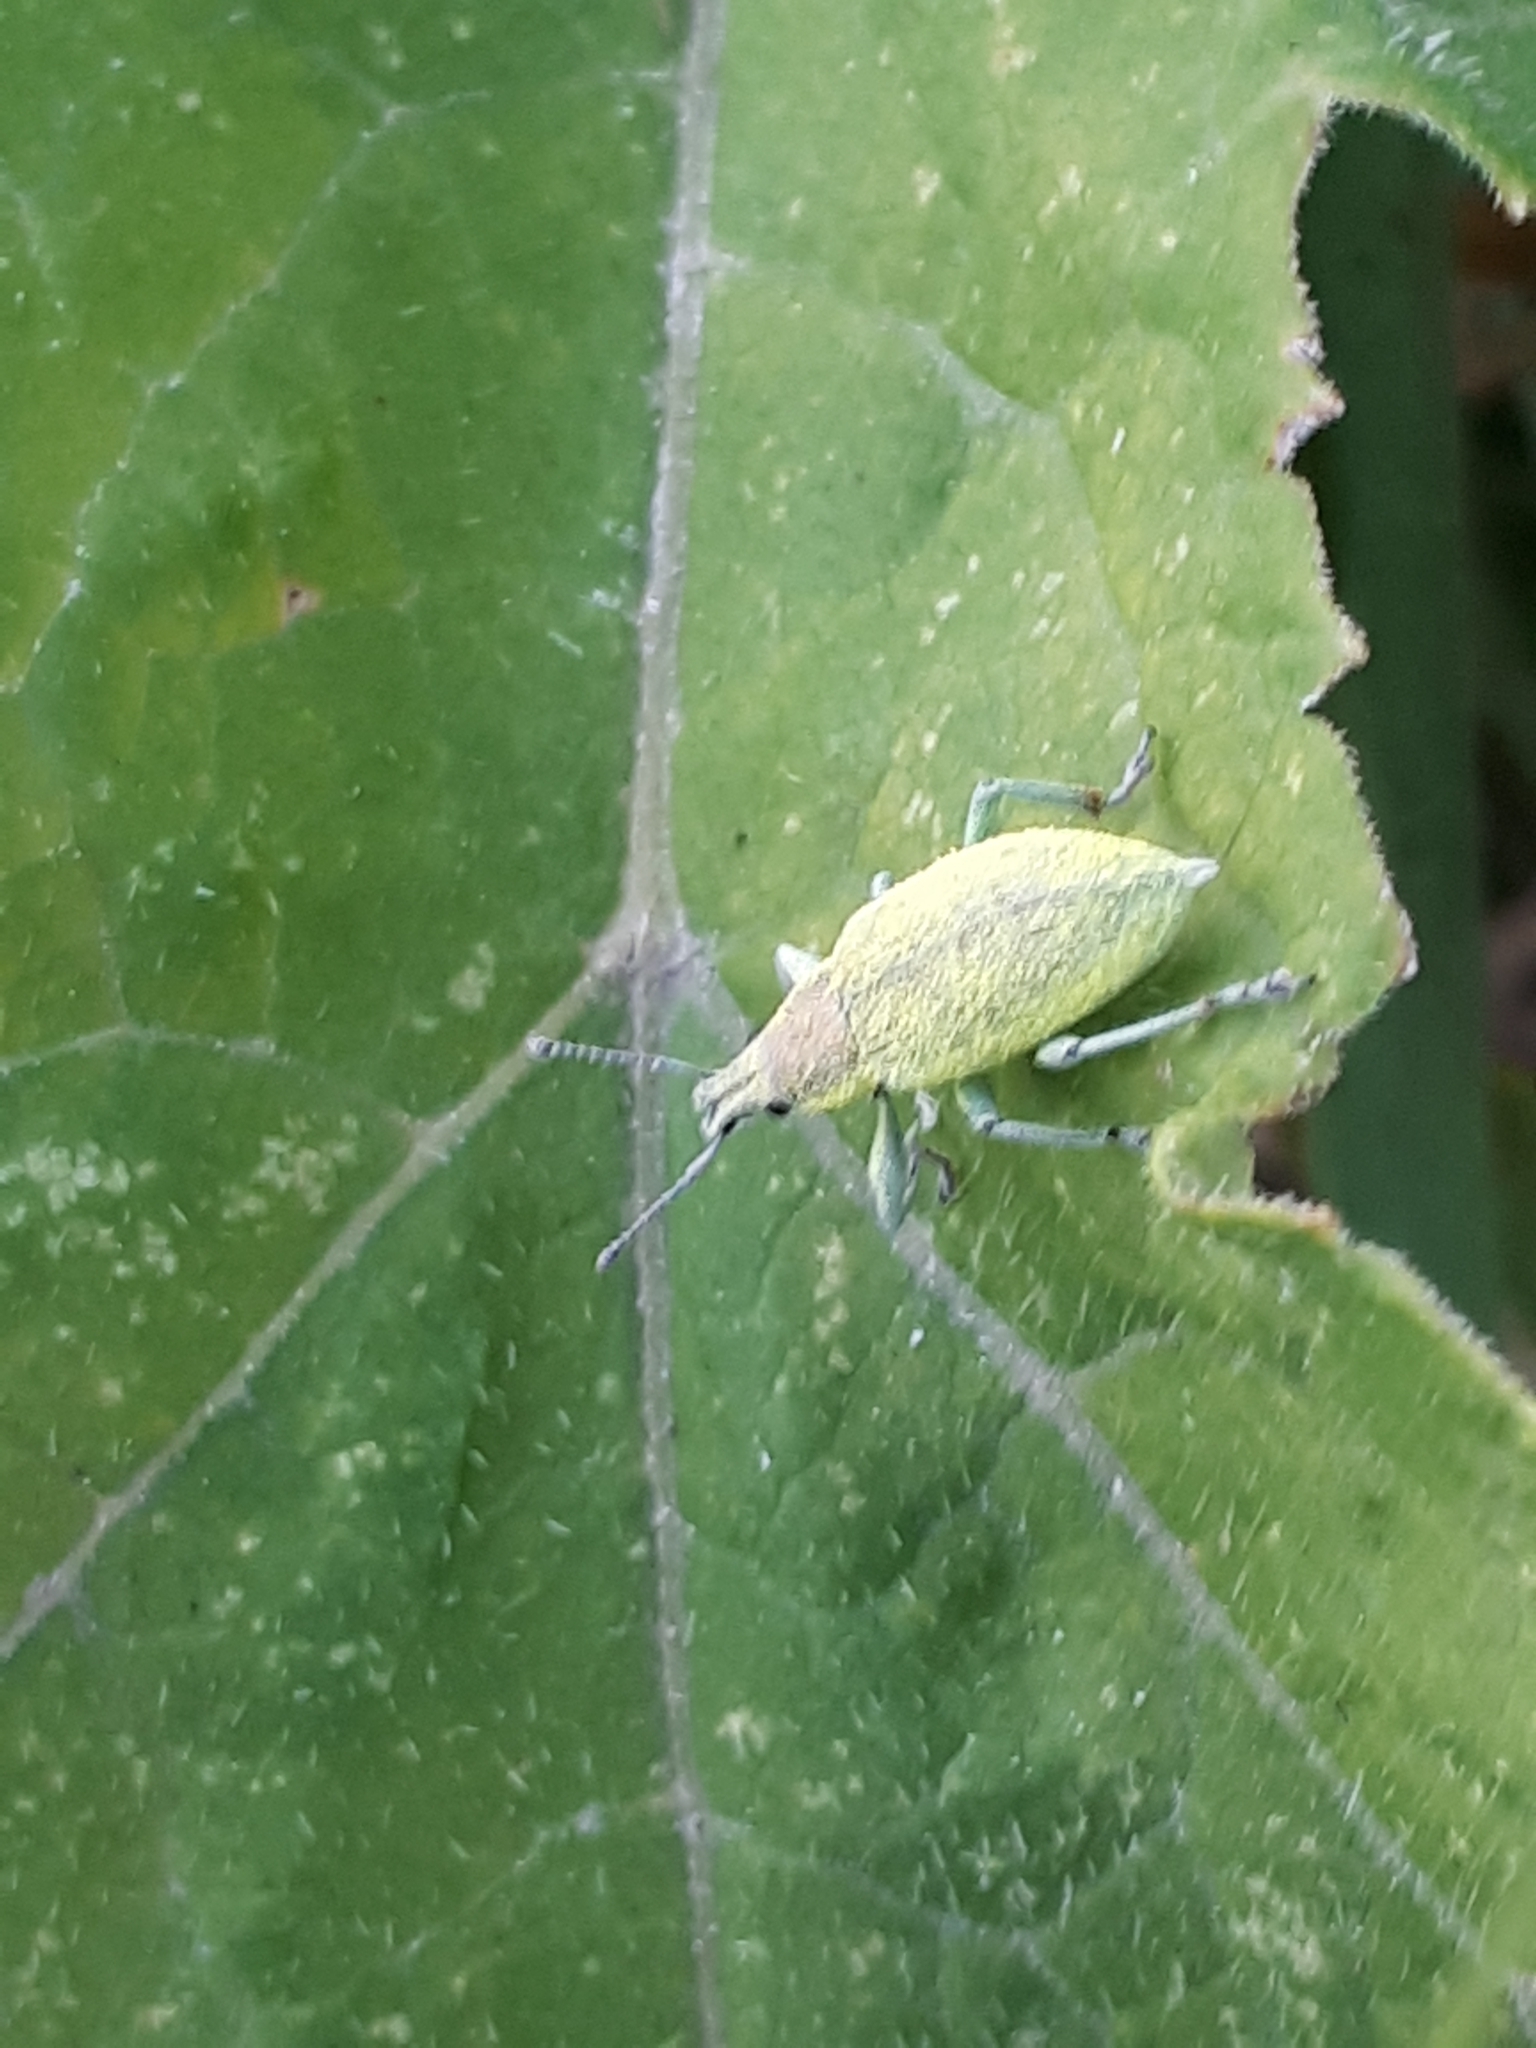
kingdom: Animalia
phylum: Arthropoda
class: Insecta
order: Coleoptera
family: Curculionidae
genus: Chlorophanus
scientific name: Chlorophanus pollinosus
